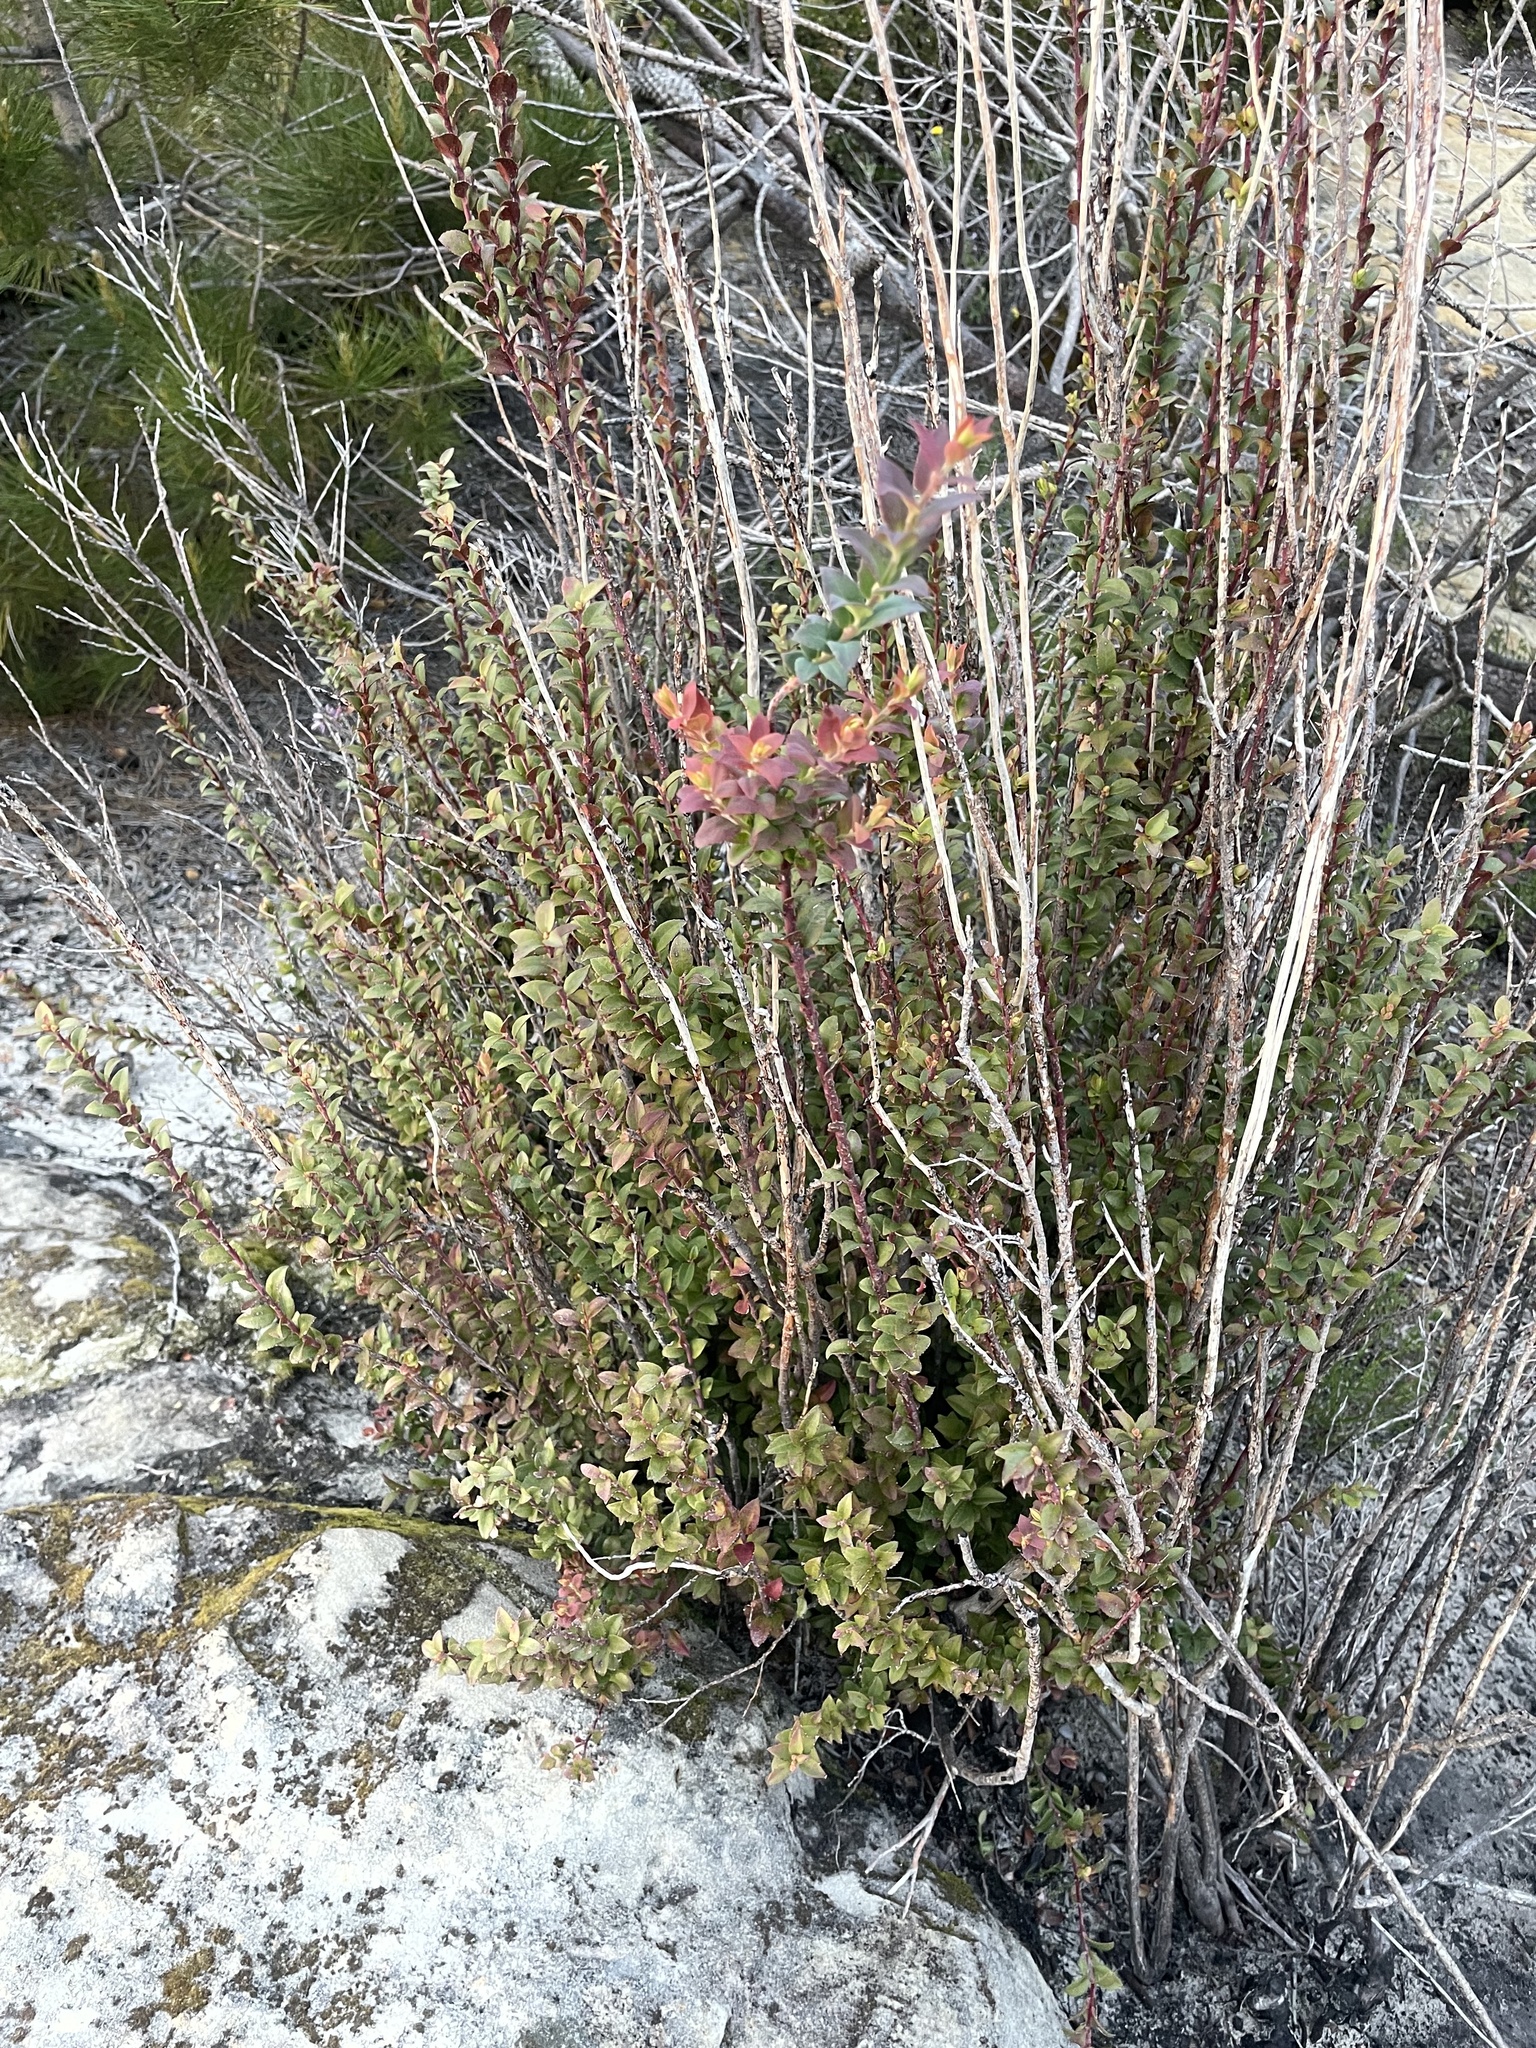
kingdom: Plantae
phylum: Tracheophyta
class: Magnoliopsida
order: Ericales
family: Ericaceae
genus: Vaccinium
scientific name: Vaccinium ovatum
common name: California-huckleberry
